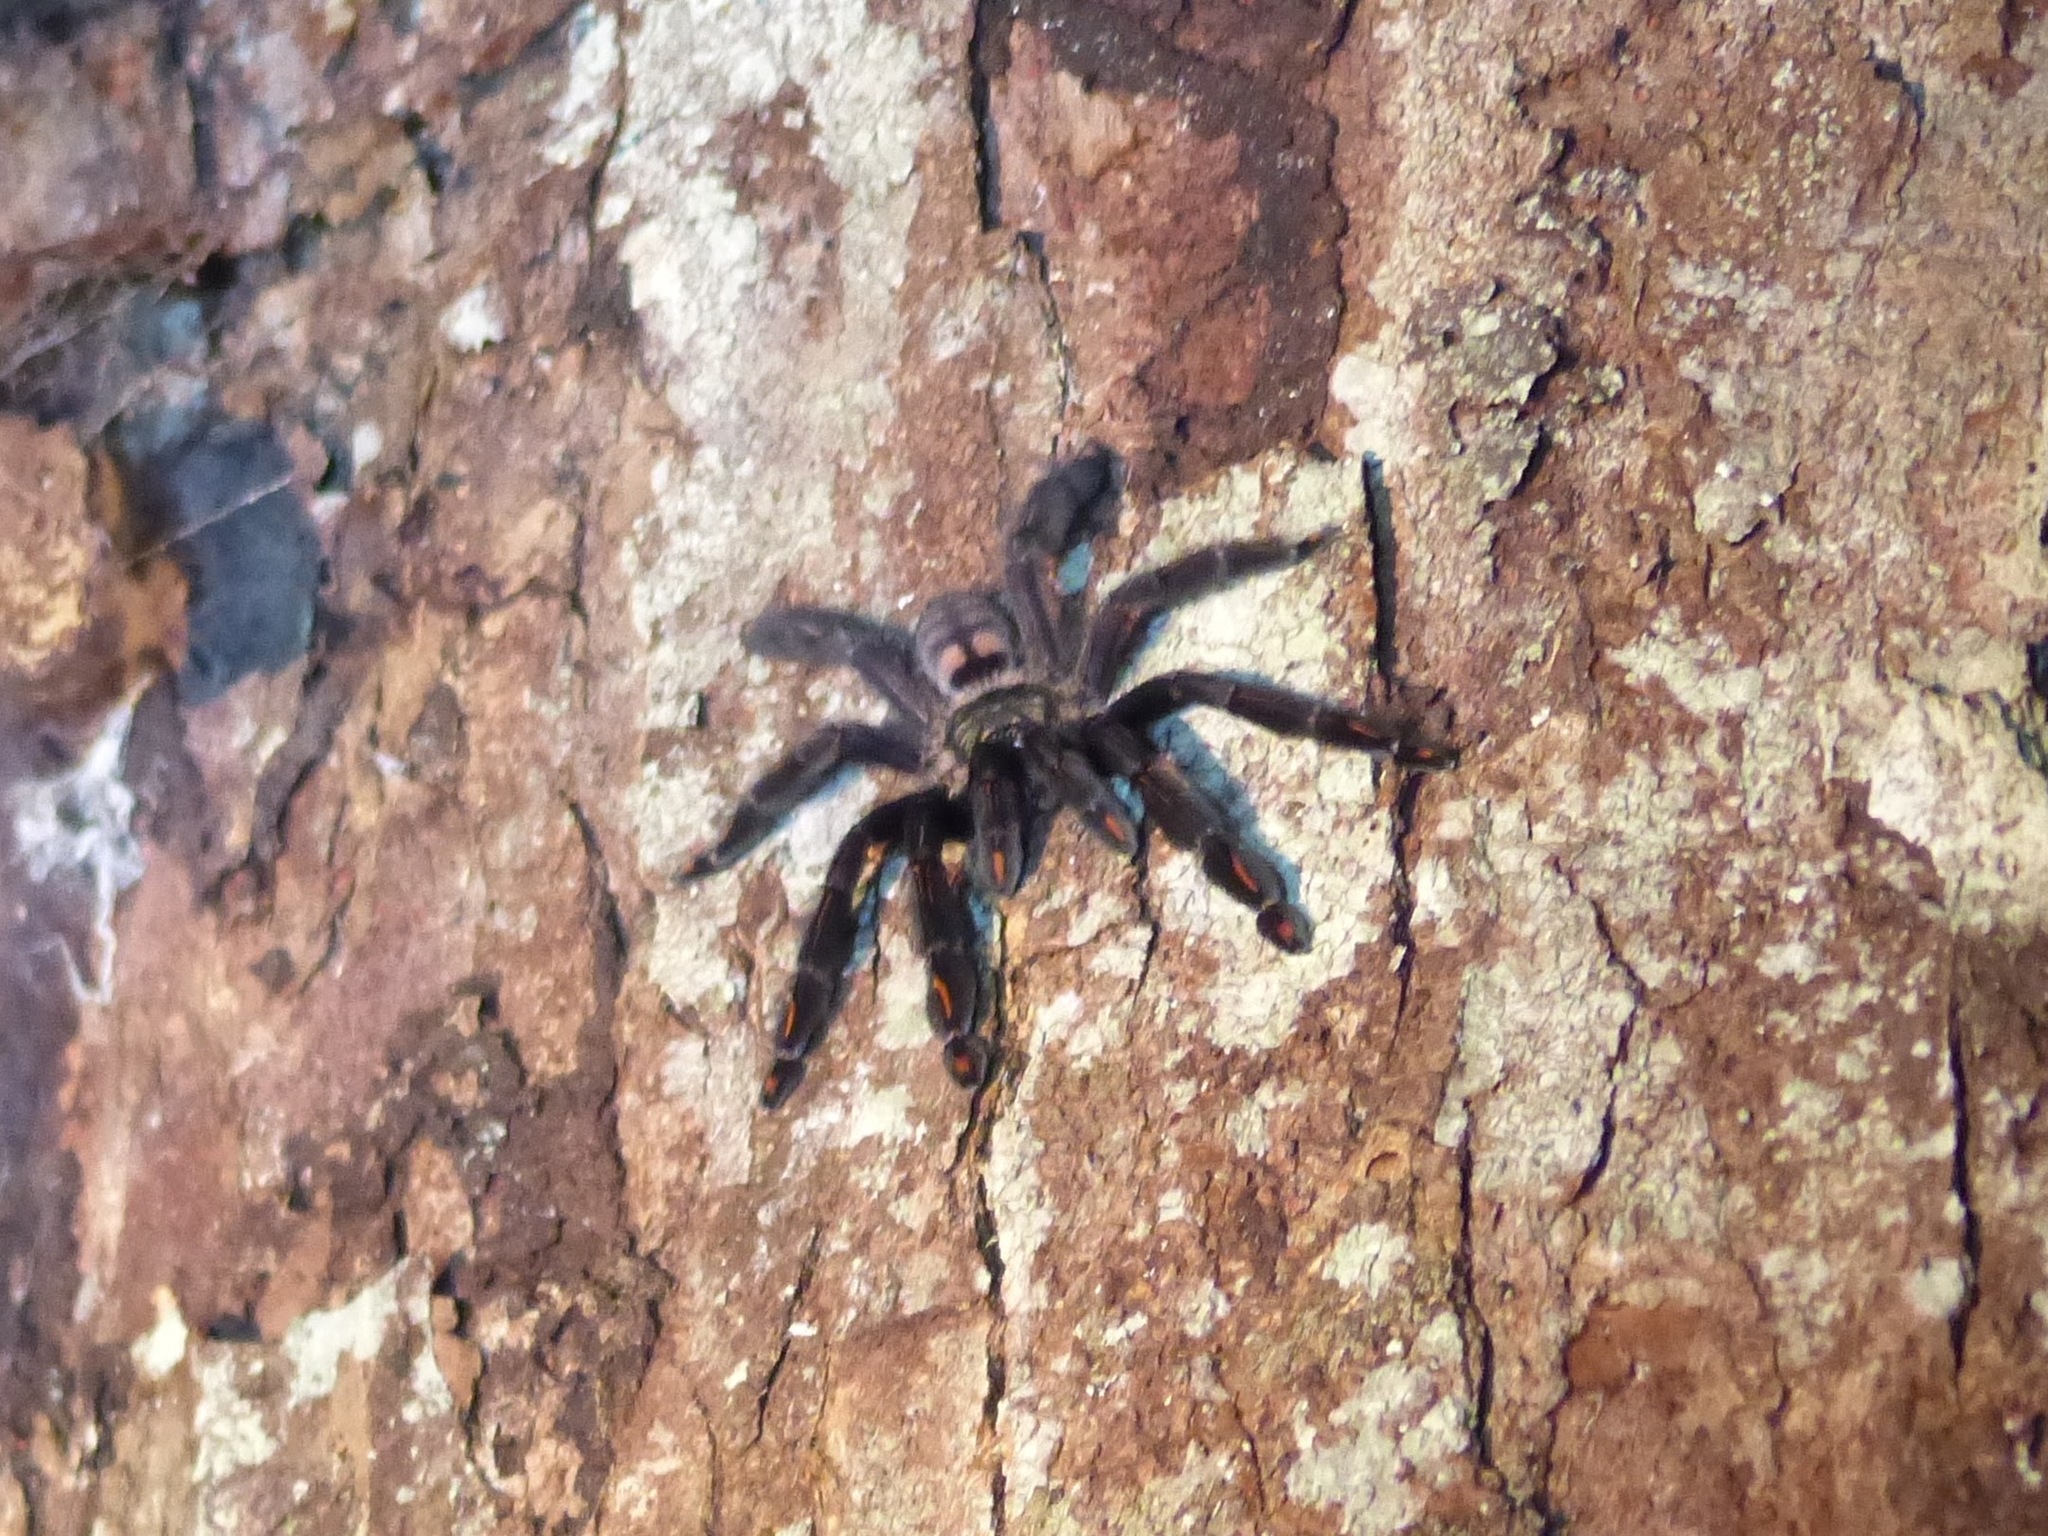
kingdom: Animalia
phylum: Arthropoda
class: Arachnida
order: Araneae
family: Theraphosidae
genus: Psalmopoeus
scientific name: Psalmopoeus irminia
